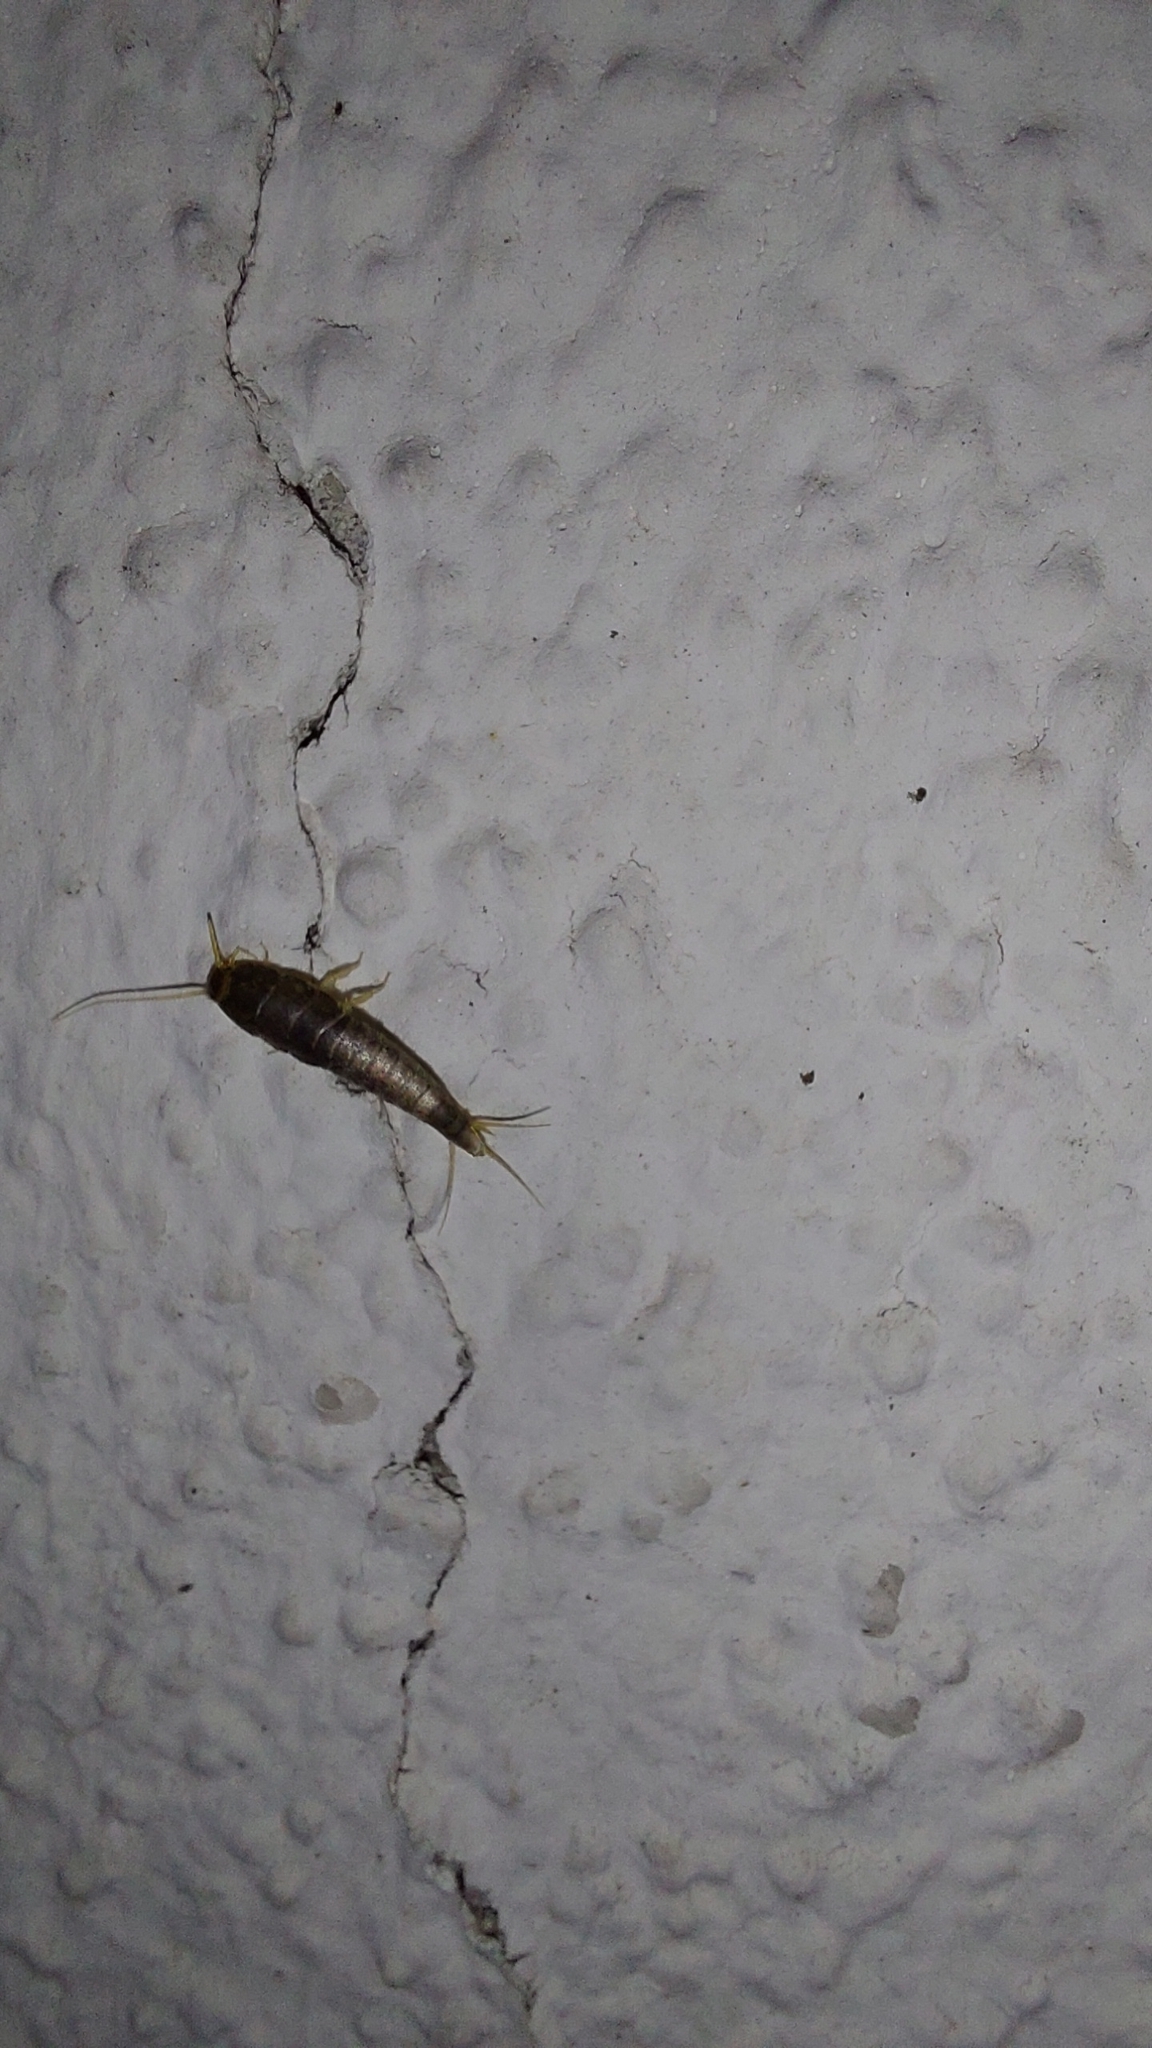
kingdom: Animalia
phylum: Arthropoda
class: Insecta
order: Zygentoma
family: Lepismatidae
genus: Lepisma
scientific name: Lepisma saccharinum
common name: Silverfish
